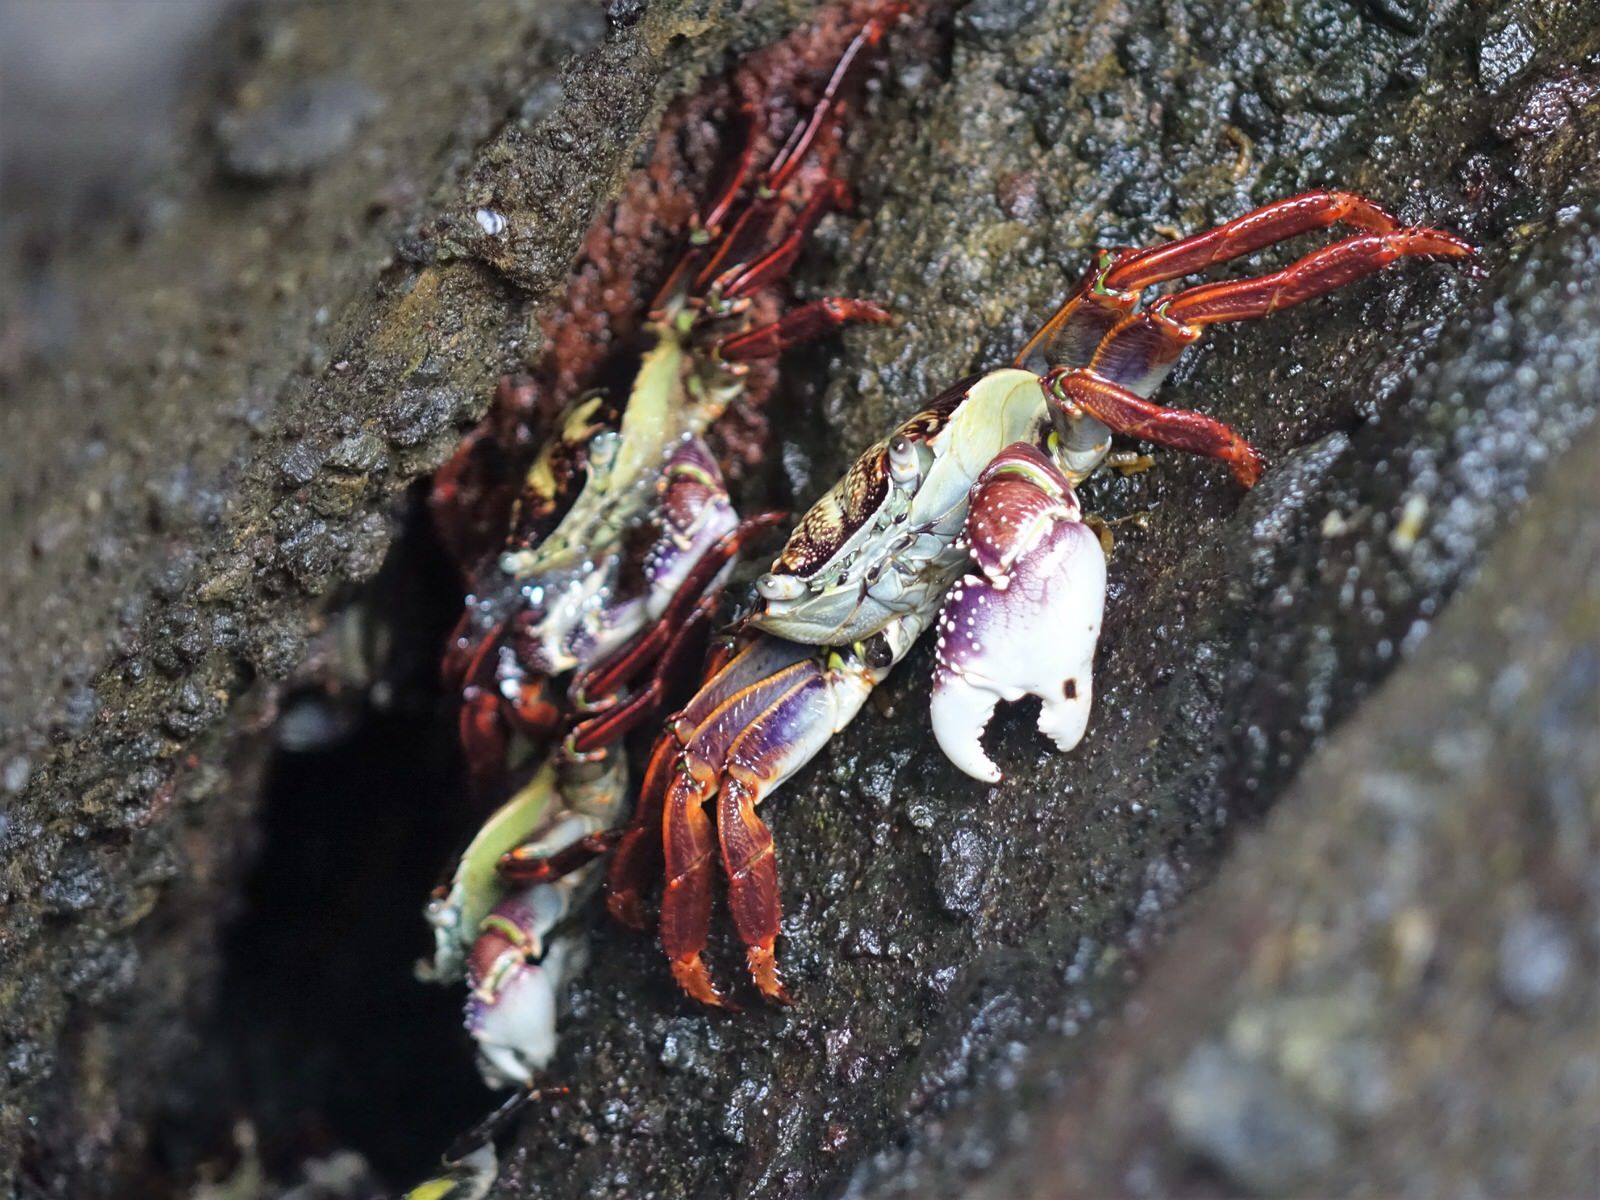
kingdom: Animalia
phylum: Arthropoda
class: Malacostraca
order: Decapoda
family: Grapsidae
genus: Leptograpsus
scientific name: Leptograpsus variegatus
